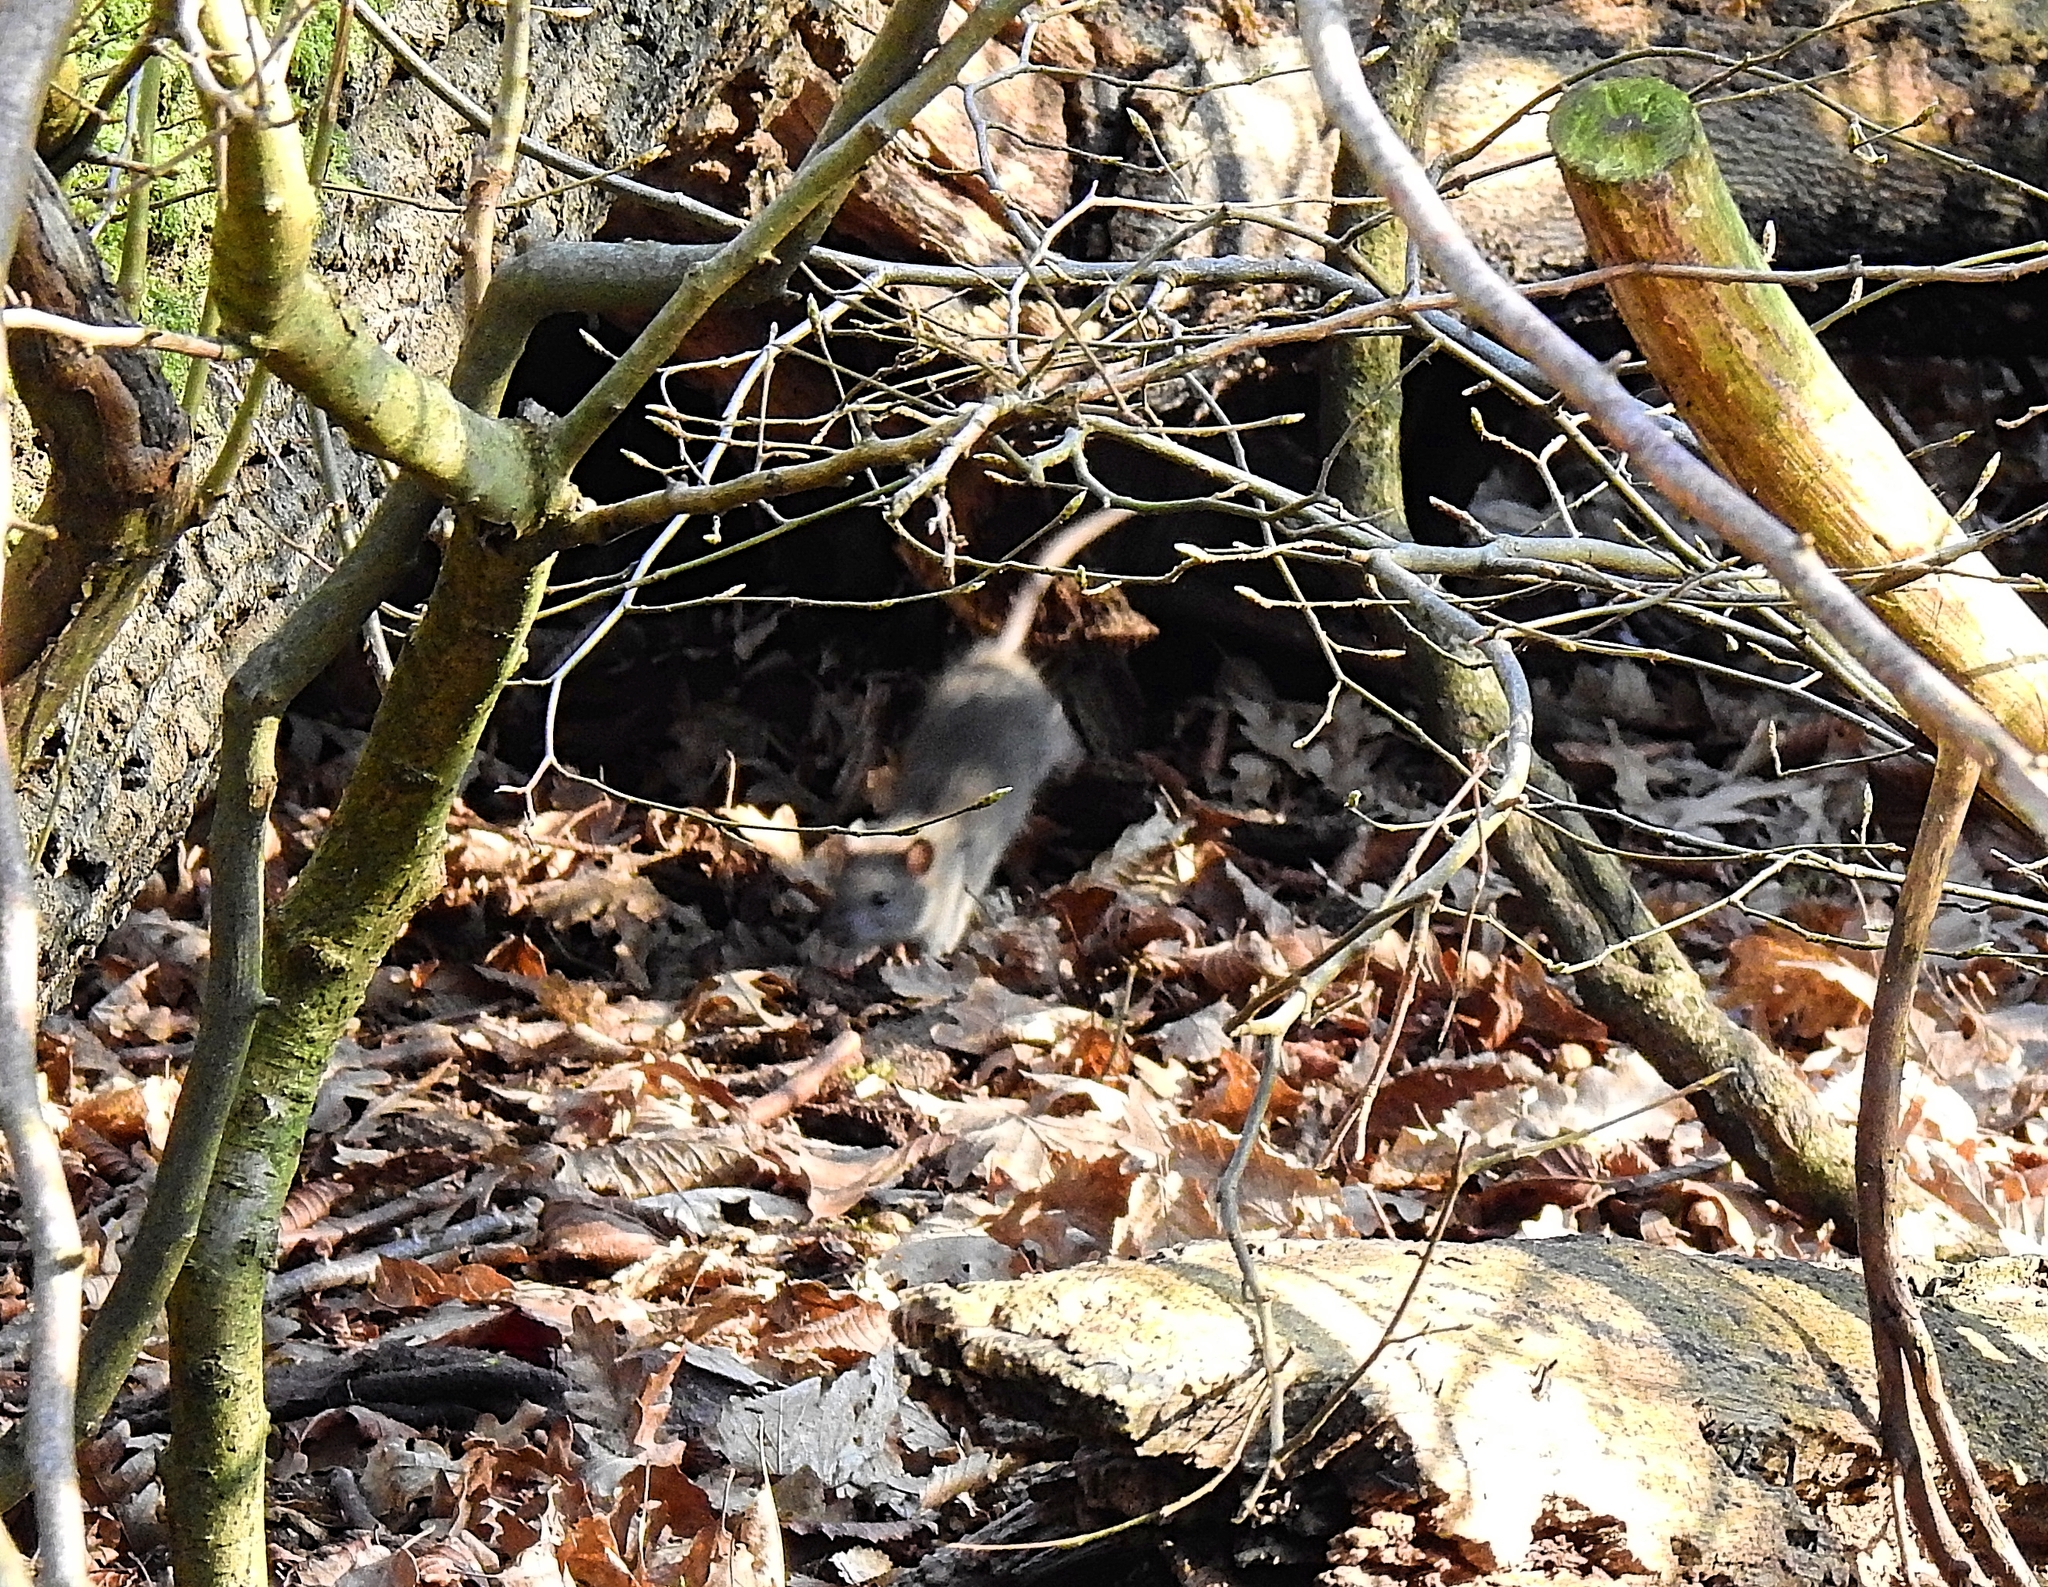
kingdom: Animalia
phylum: Chordata
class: Mammalia
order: Rodentia
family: Muridae
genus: Rattus
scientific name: Rattus norvegicus
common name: Brown rat
